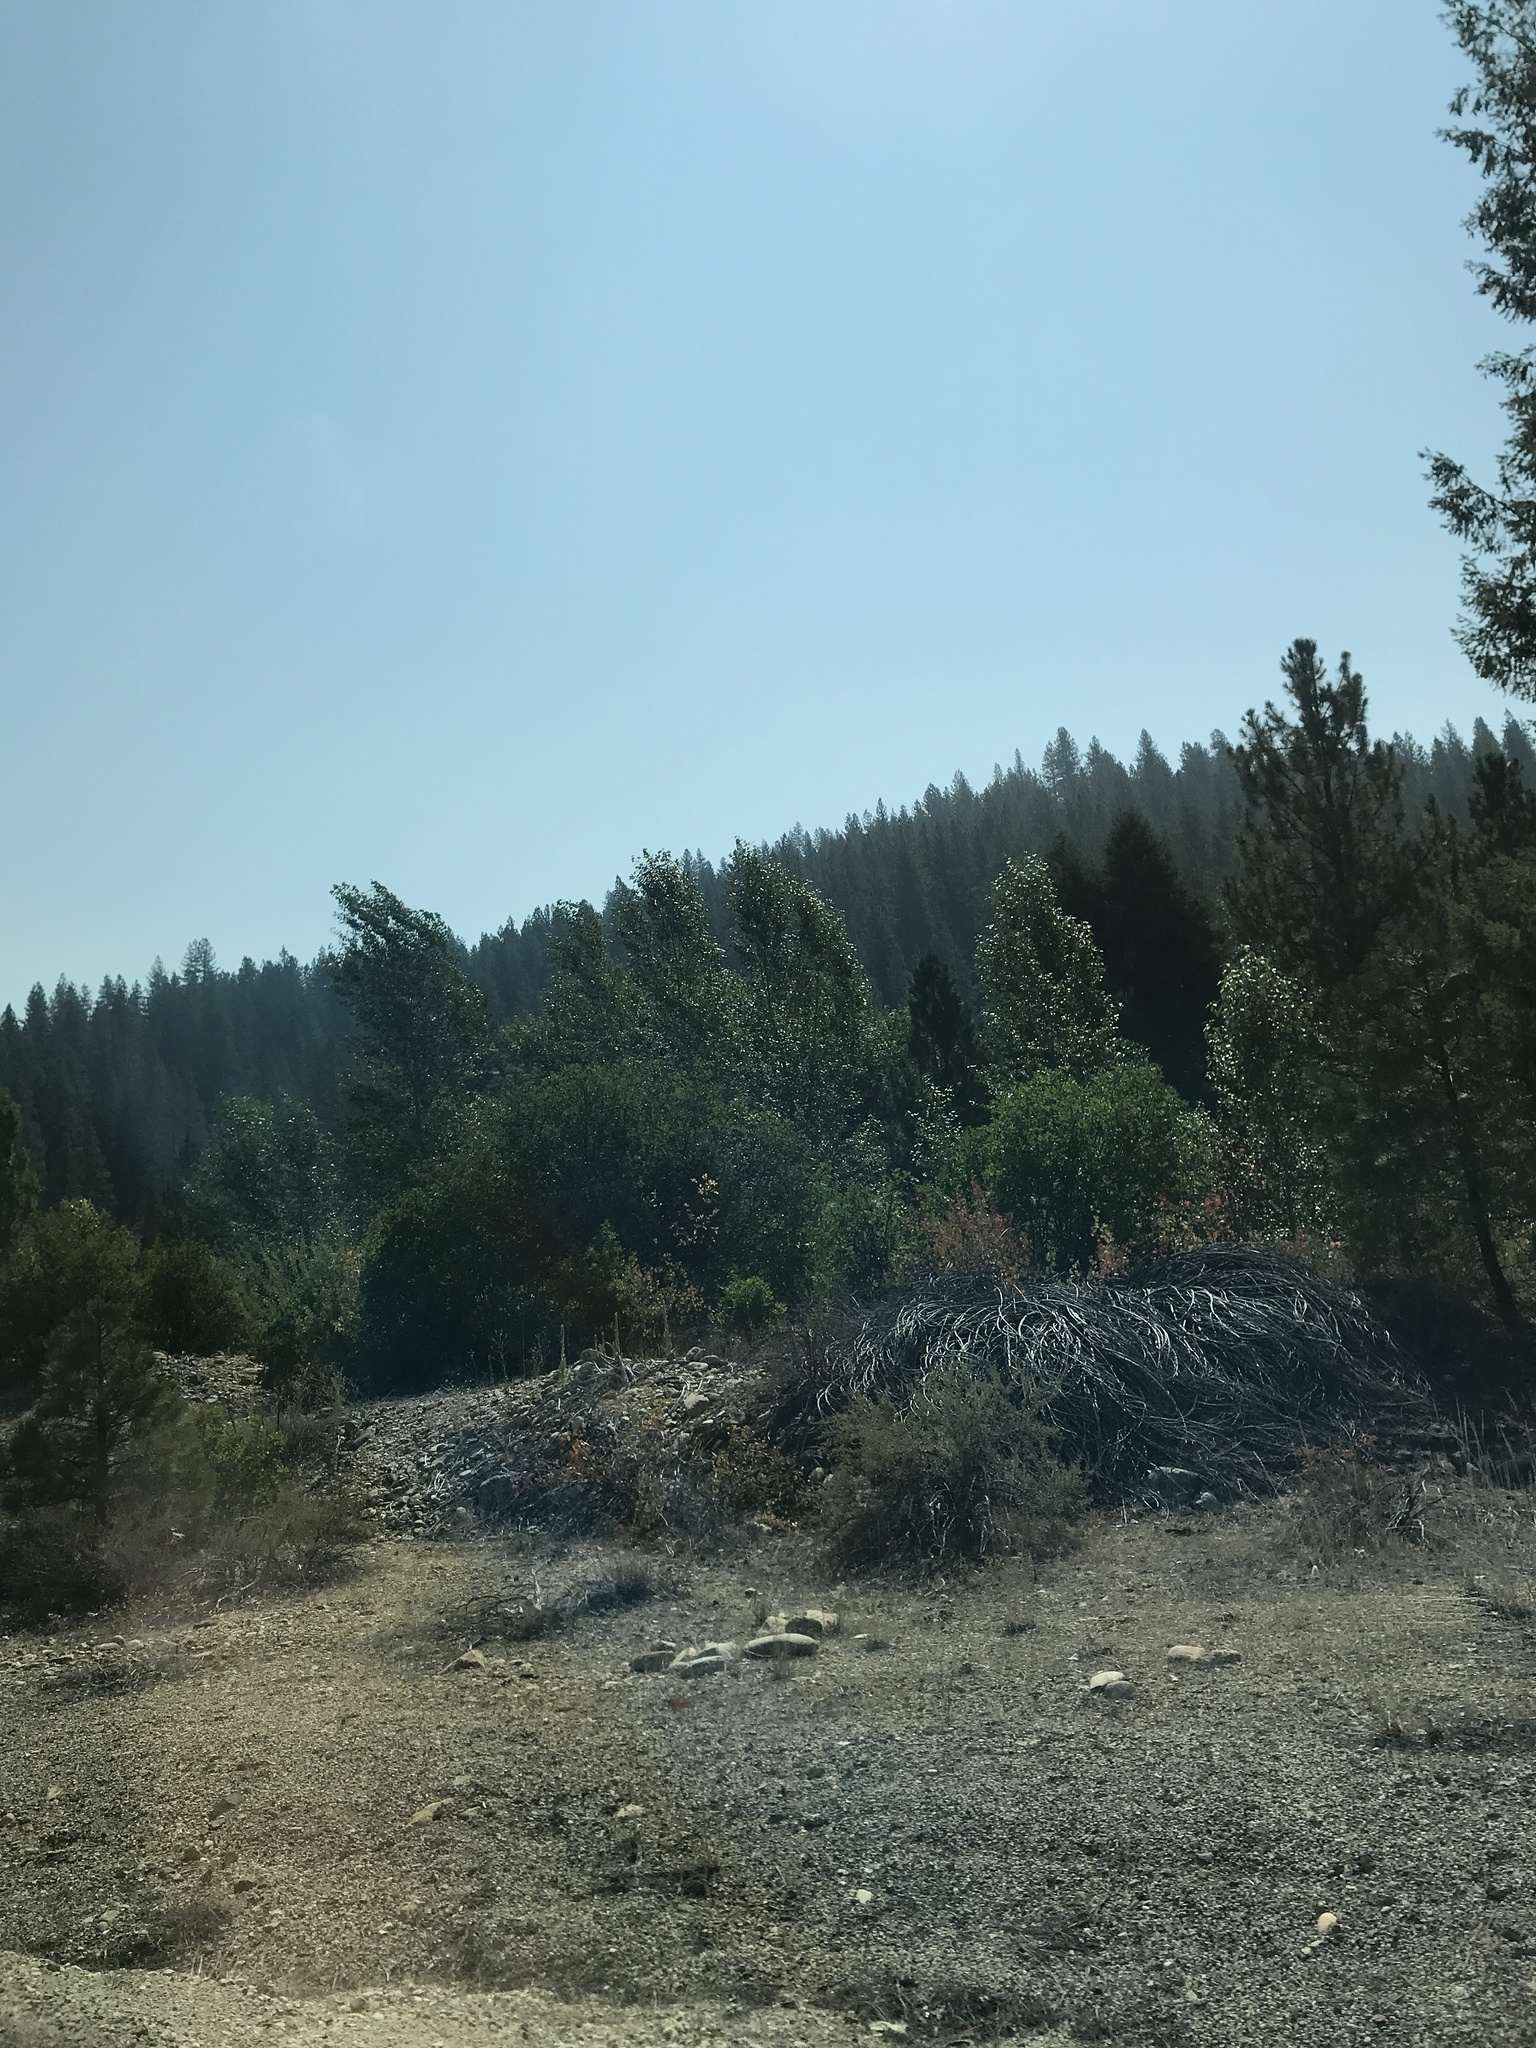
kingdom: Plantae
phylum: Tracheophyta
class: Pinopsida
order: Pinales
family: Pinaceae
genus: Pinus
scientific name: Pinus ponderosa
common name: Western yellow-pine
